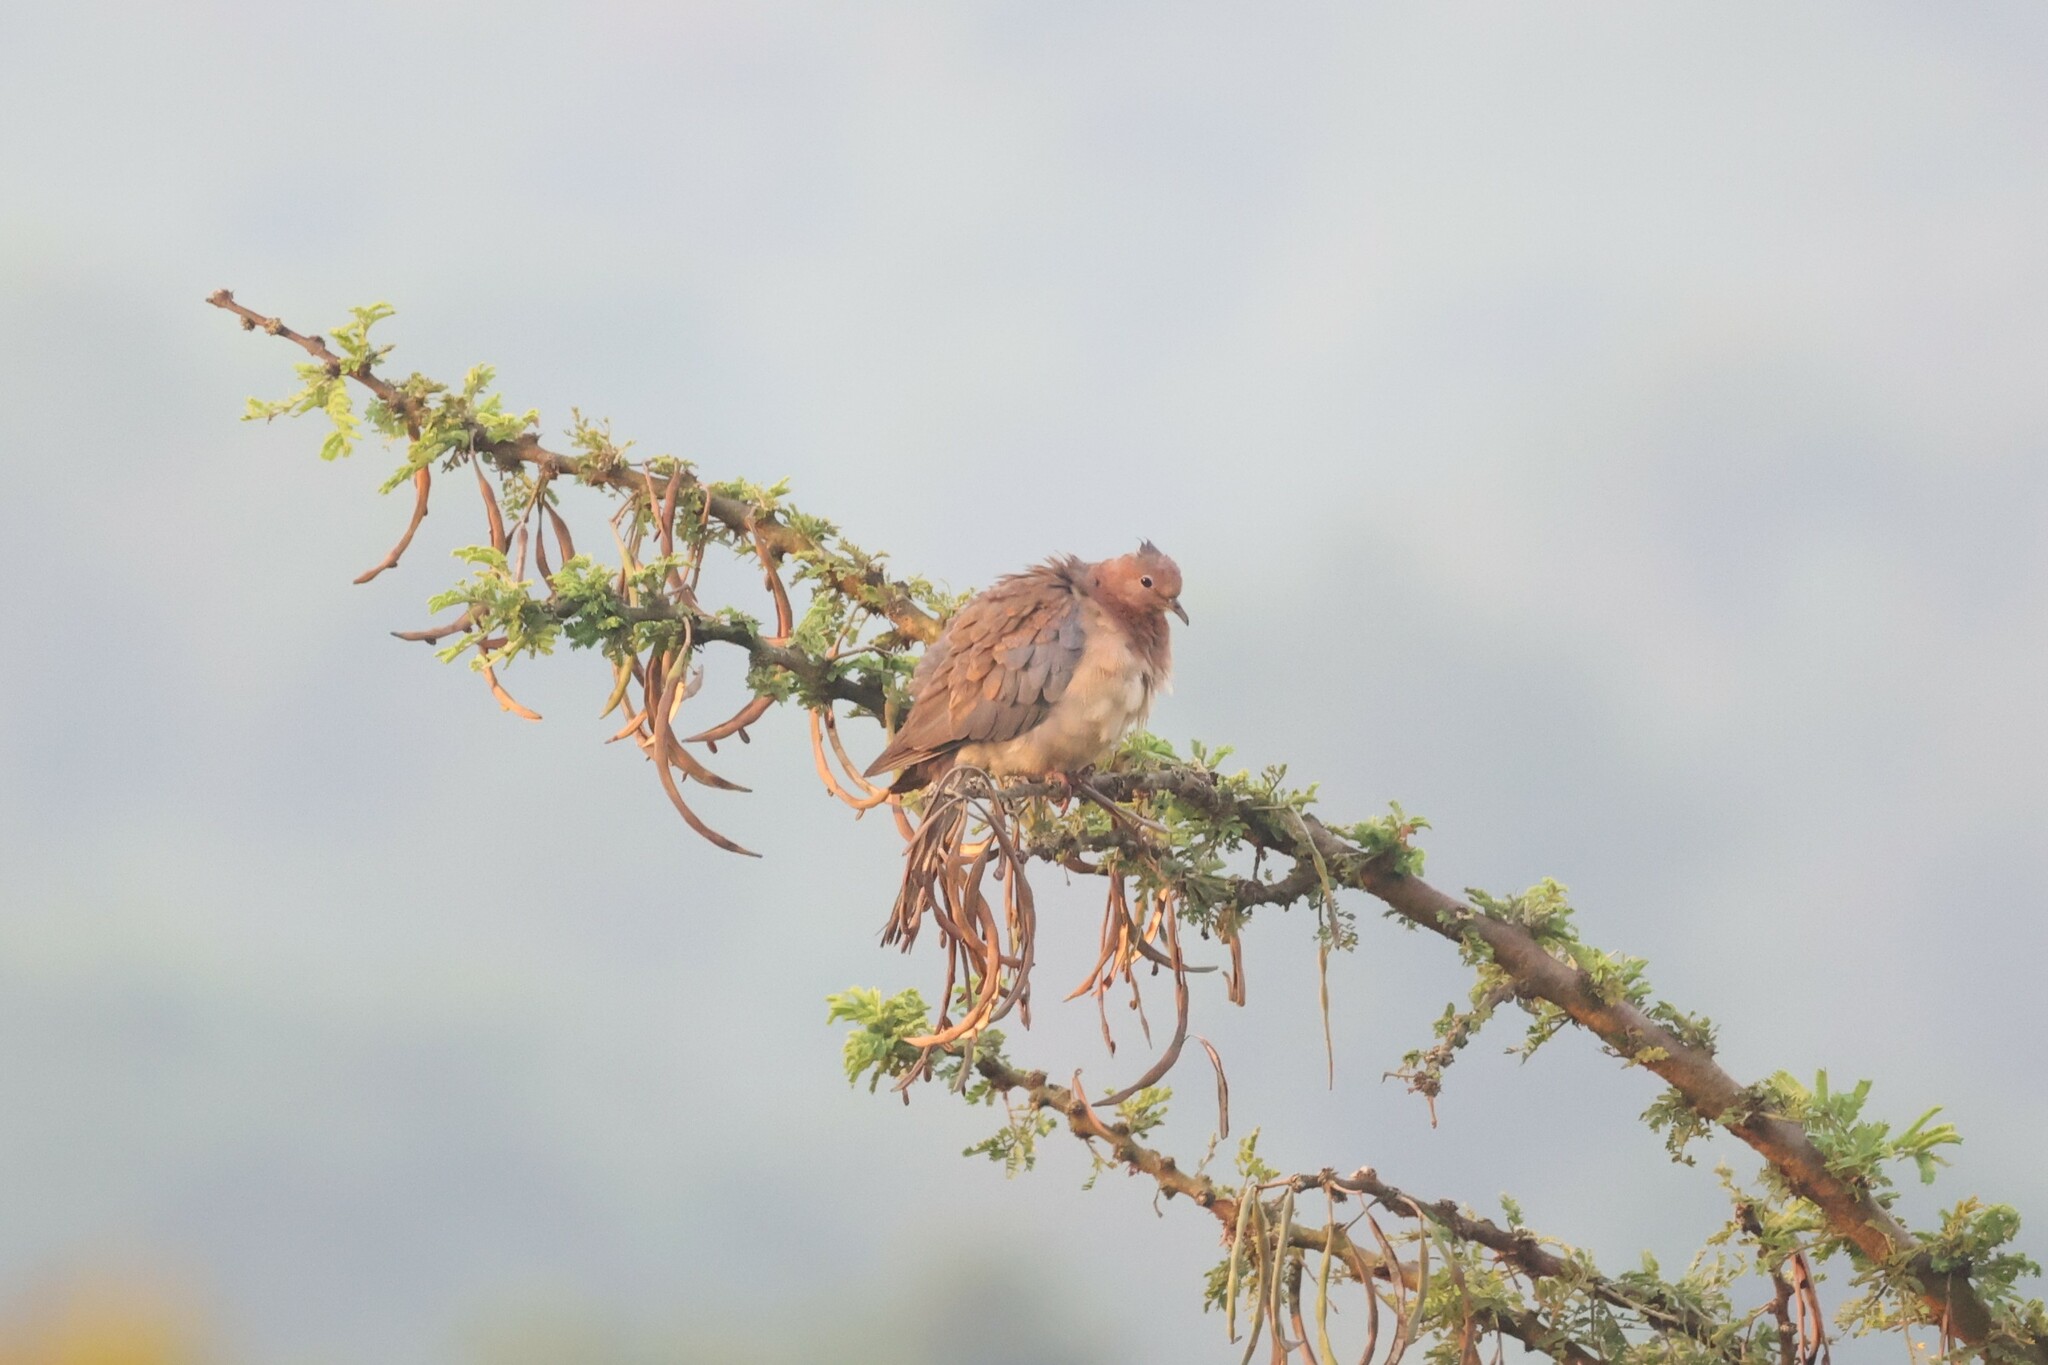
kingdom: Animalia
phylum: Chordata
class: Aves
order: Columbiformes
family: Columbidae
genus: Spilopelia
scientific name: Spilopelia senegalensis
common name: Laughing dove
